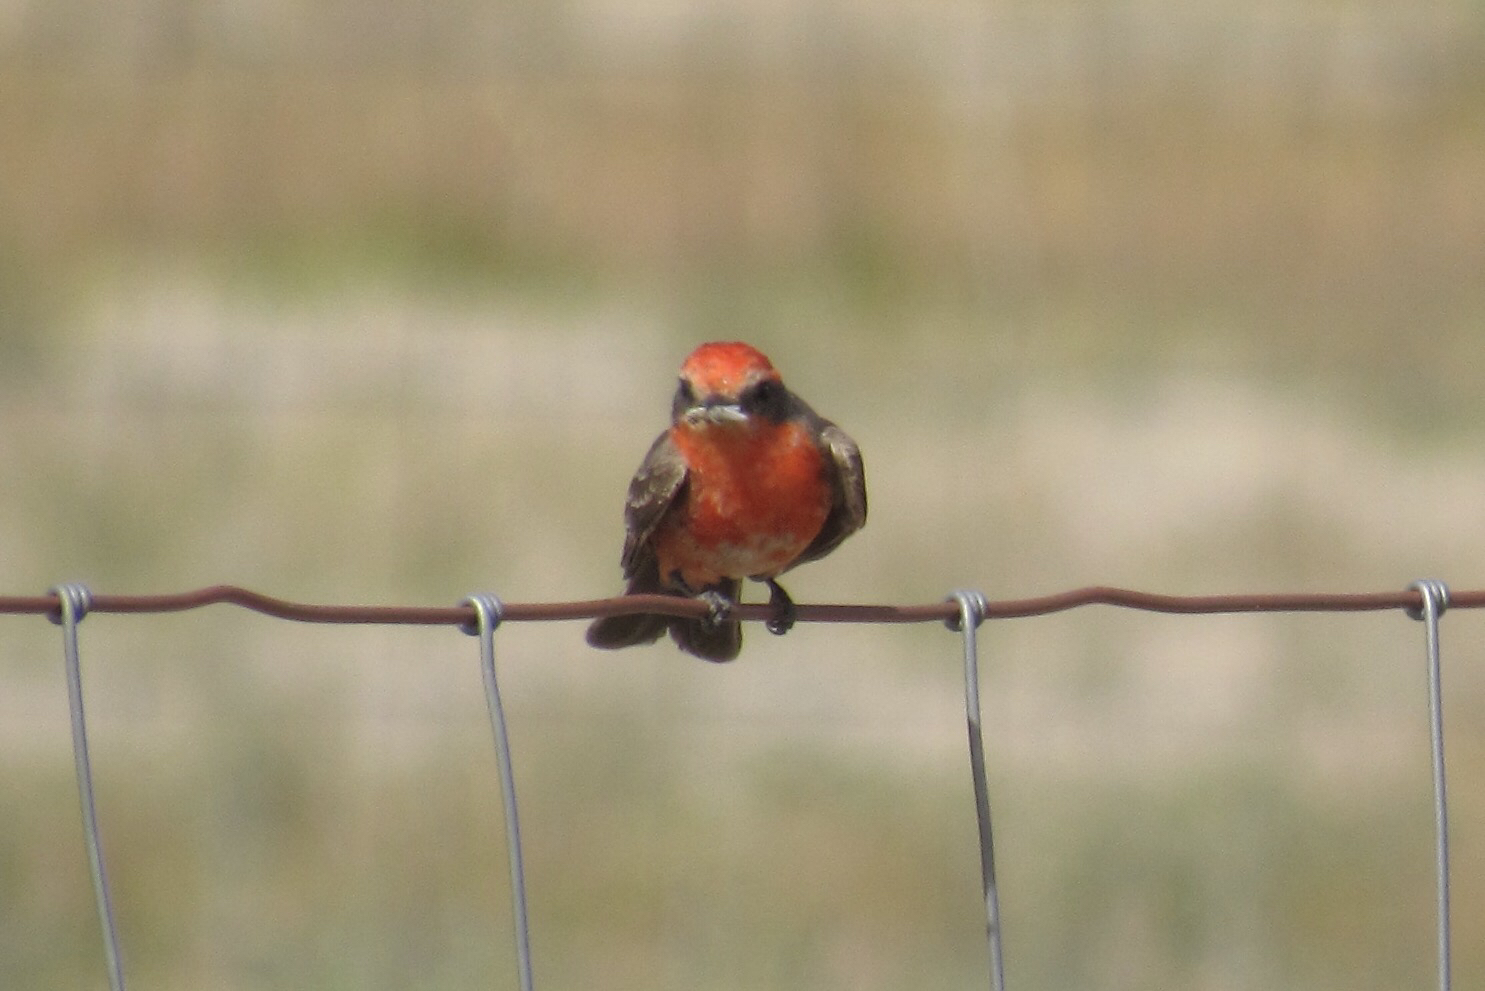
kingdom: Animalia
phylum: Chordata
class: Aves
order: Passeriformes
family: Tyrannidae
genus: Pyrocephalus
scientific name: Pyrocephalus rubinus
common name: Vermilion flycatcher
